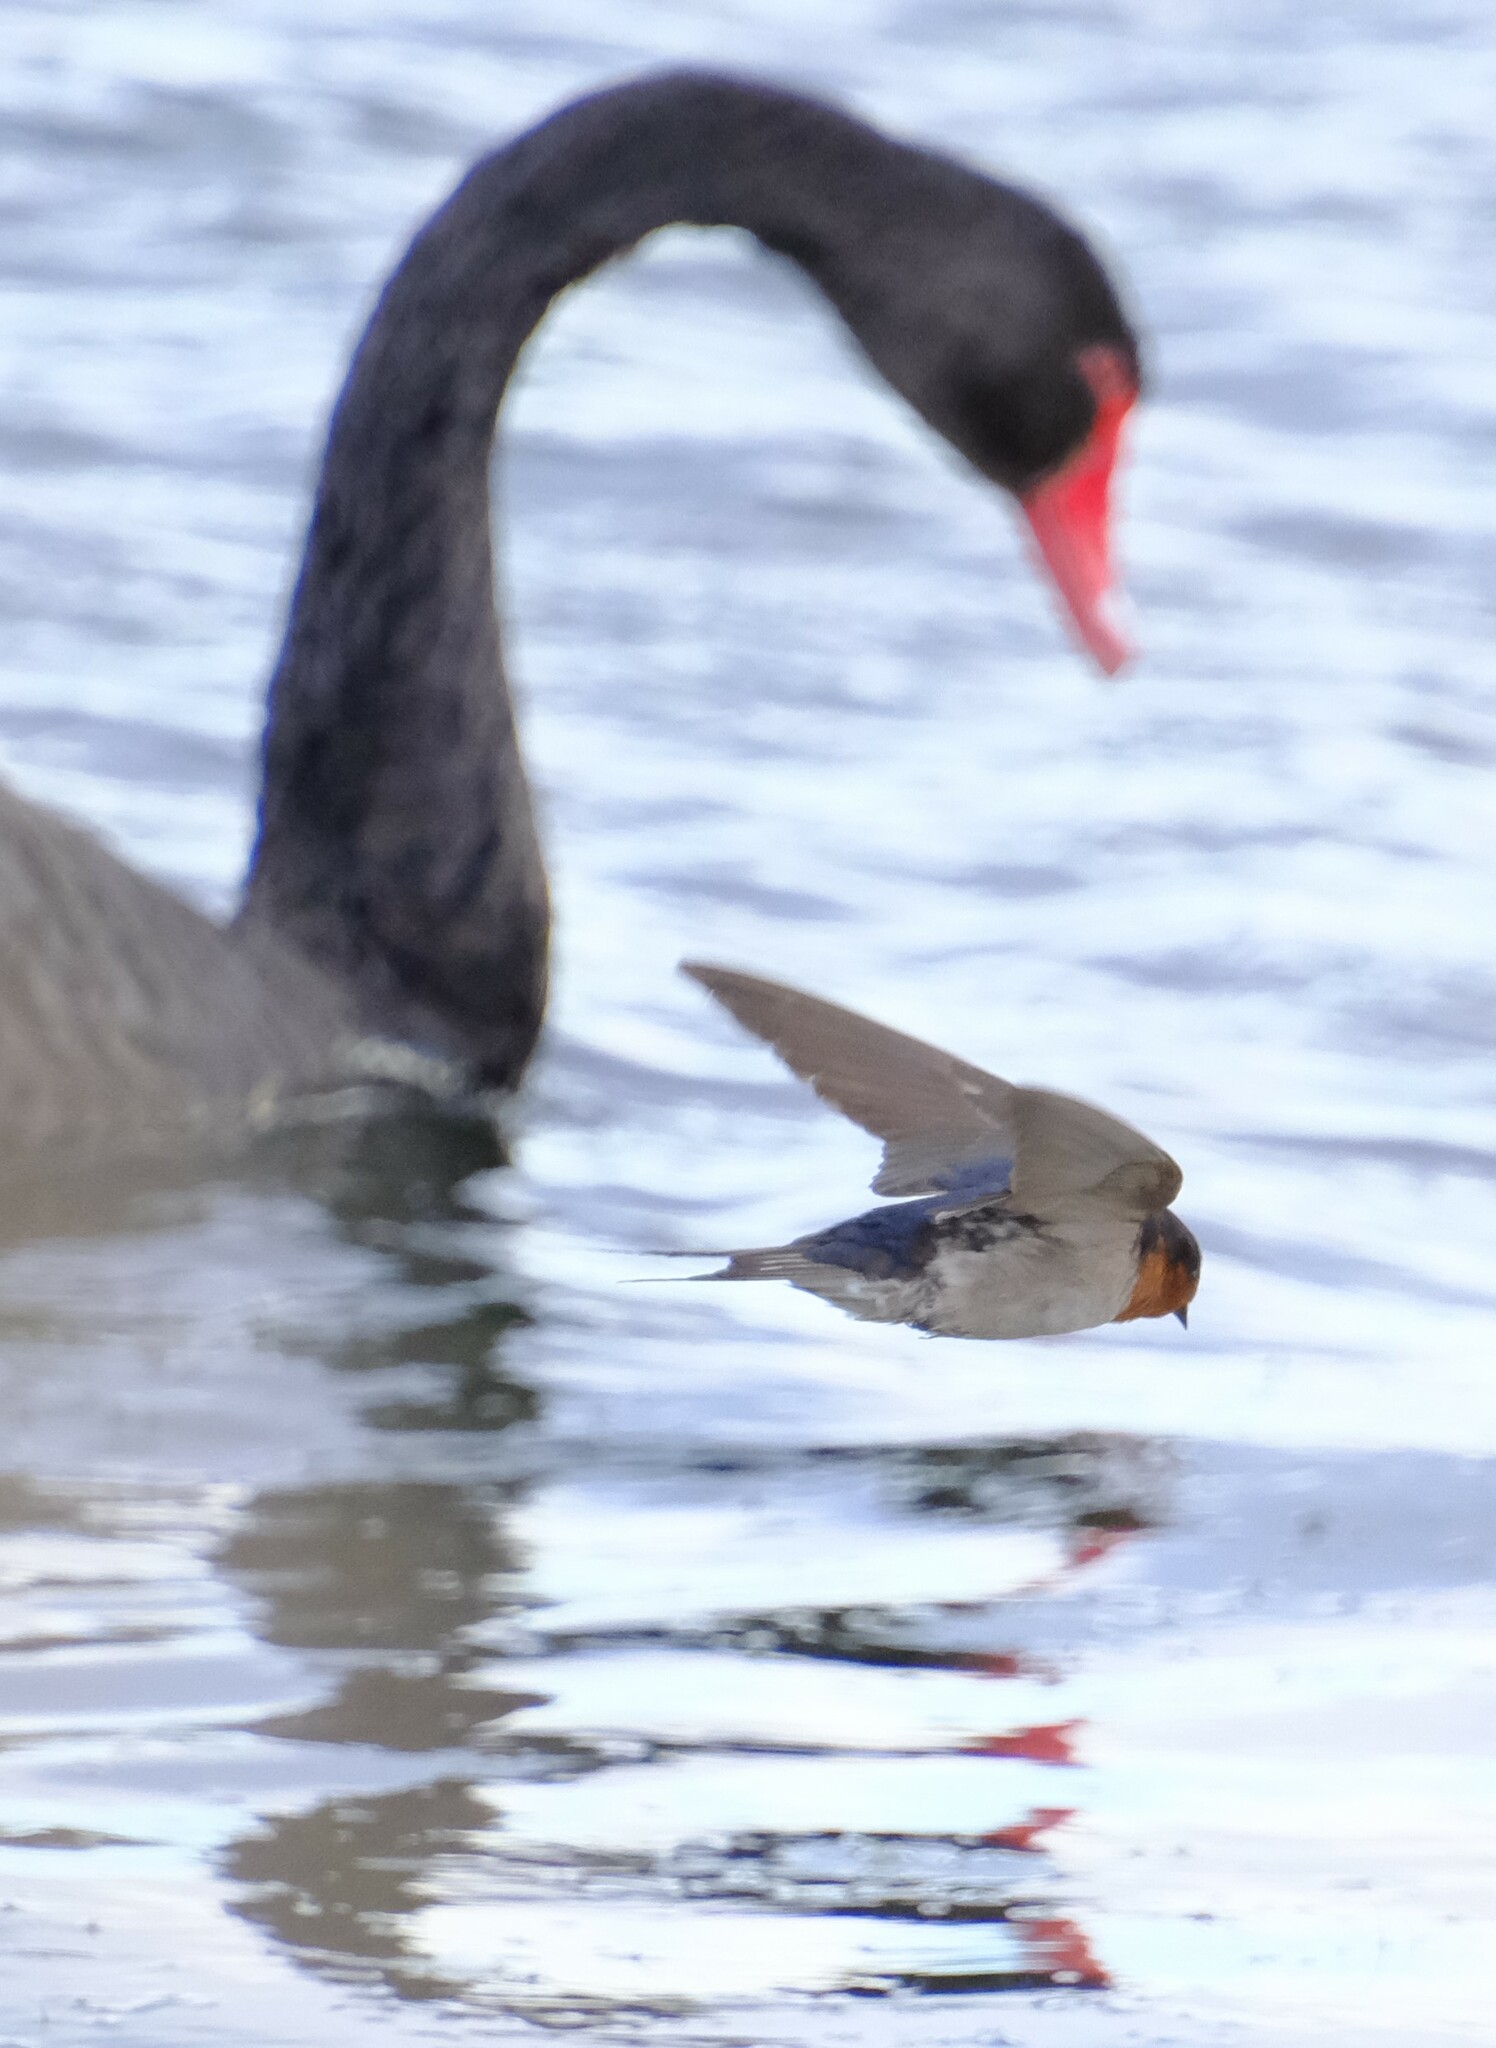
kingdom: Animalia
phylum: Chordata
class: Aves
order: Passeriformes
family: Hirundinidae
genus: Hirundo
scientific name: Hirundo neoxena
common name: Welcome swallow
